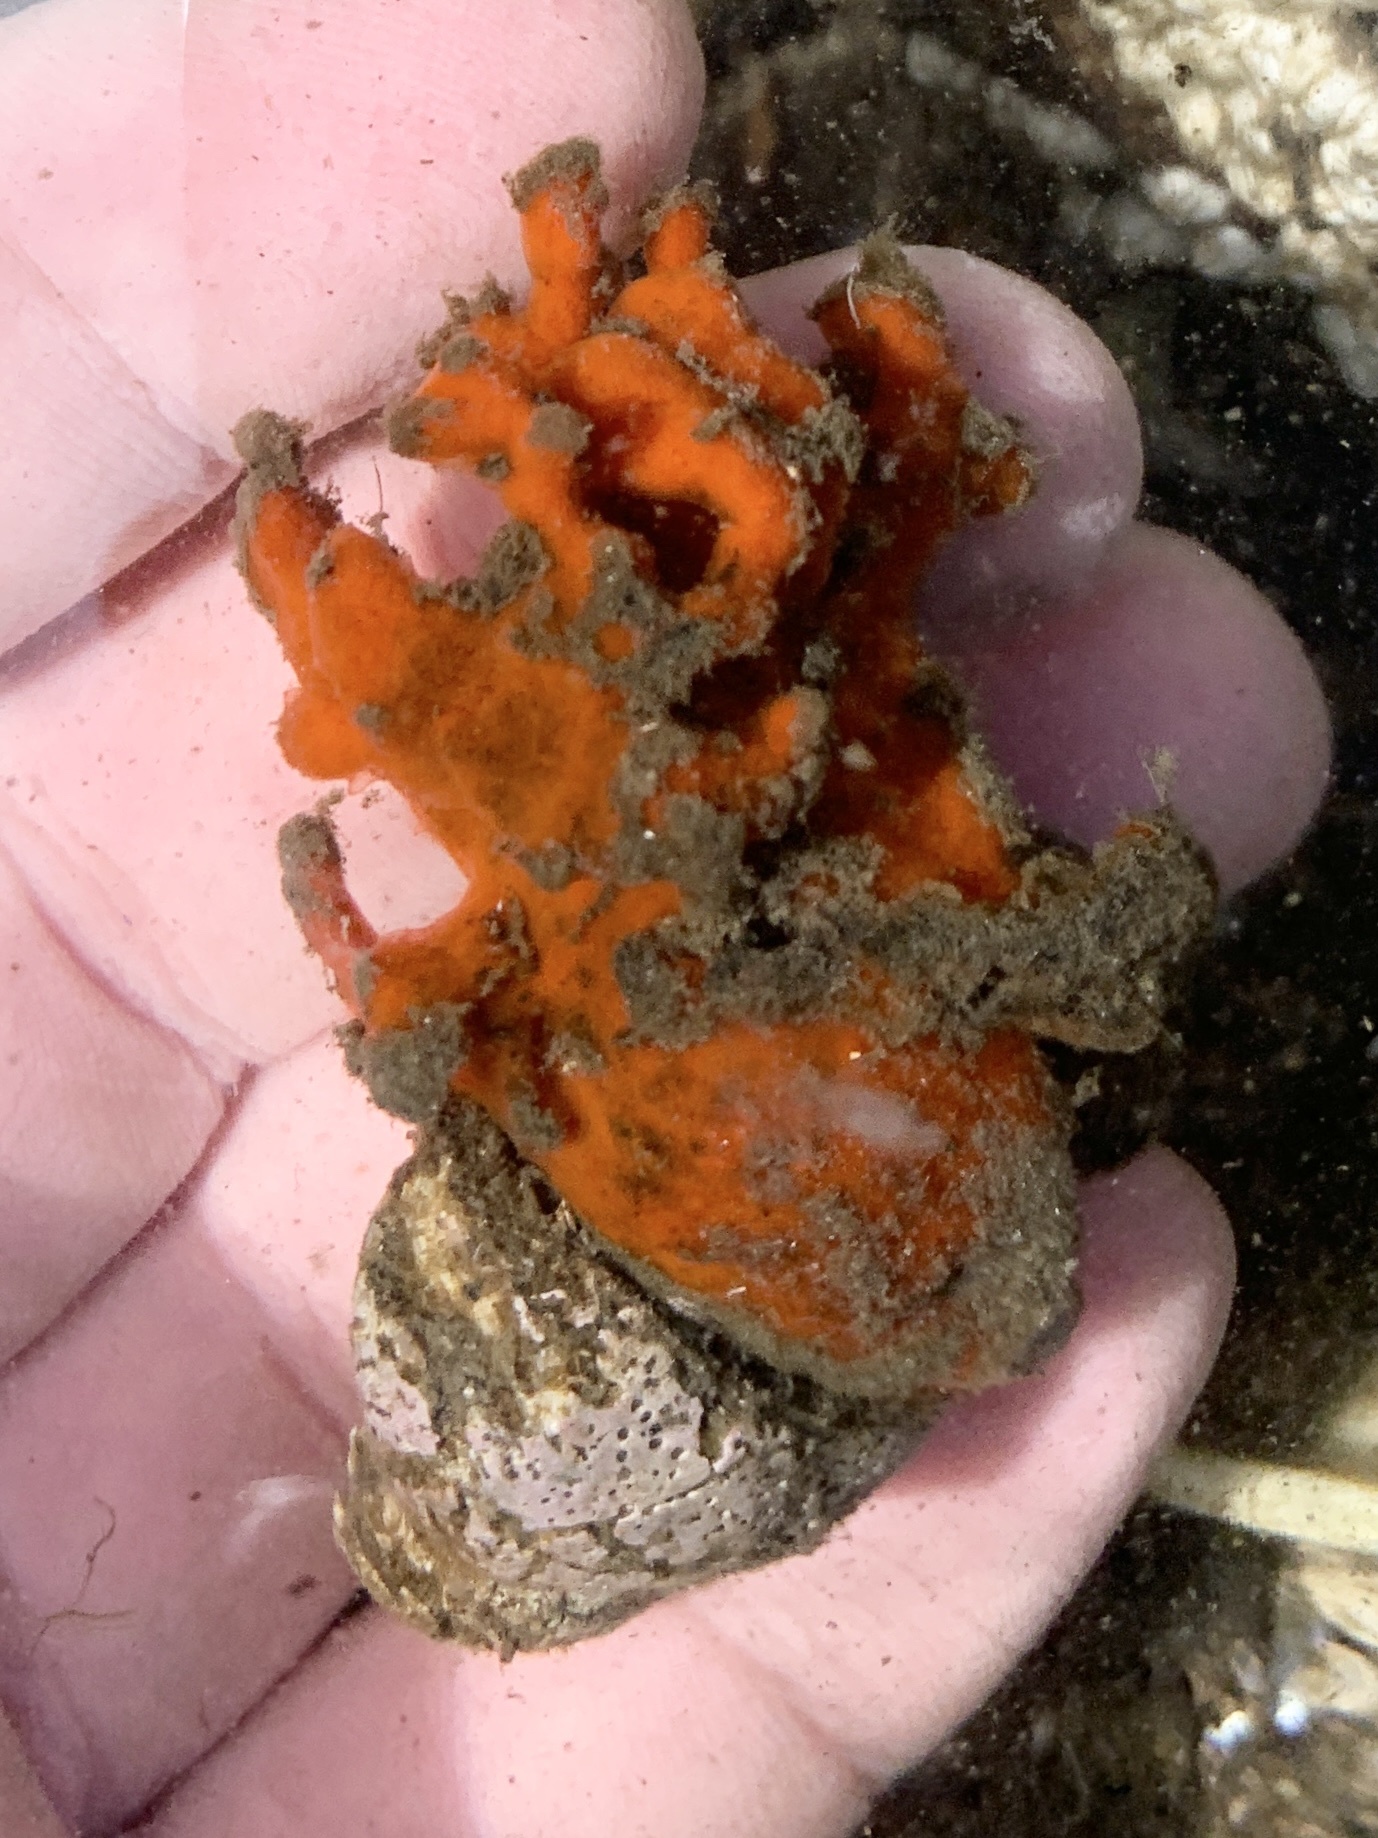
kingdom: Animalia
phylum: Porifera
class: Demospongiae
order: Poecilosclerida
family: Microcionidae
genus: Clathria
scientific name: Clathria prolifera
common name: Red beard sponge
